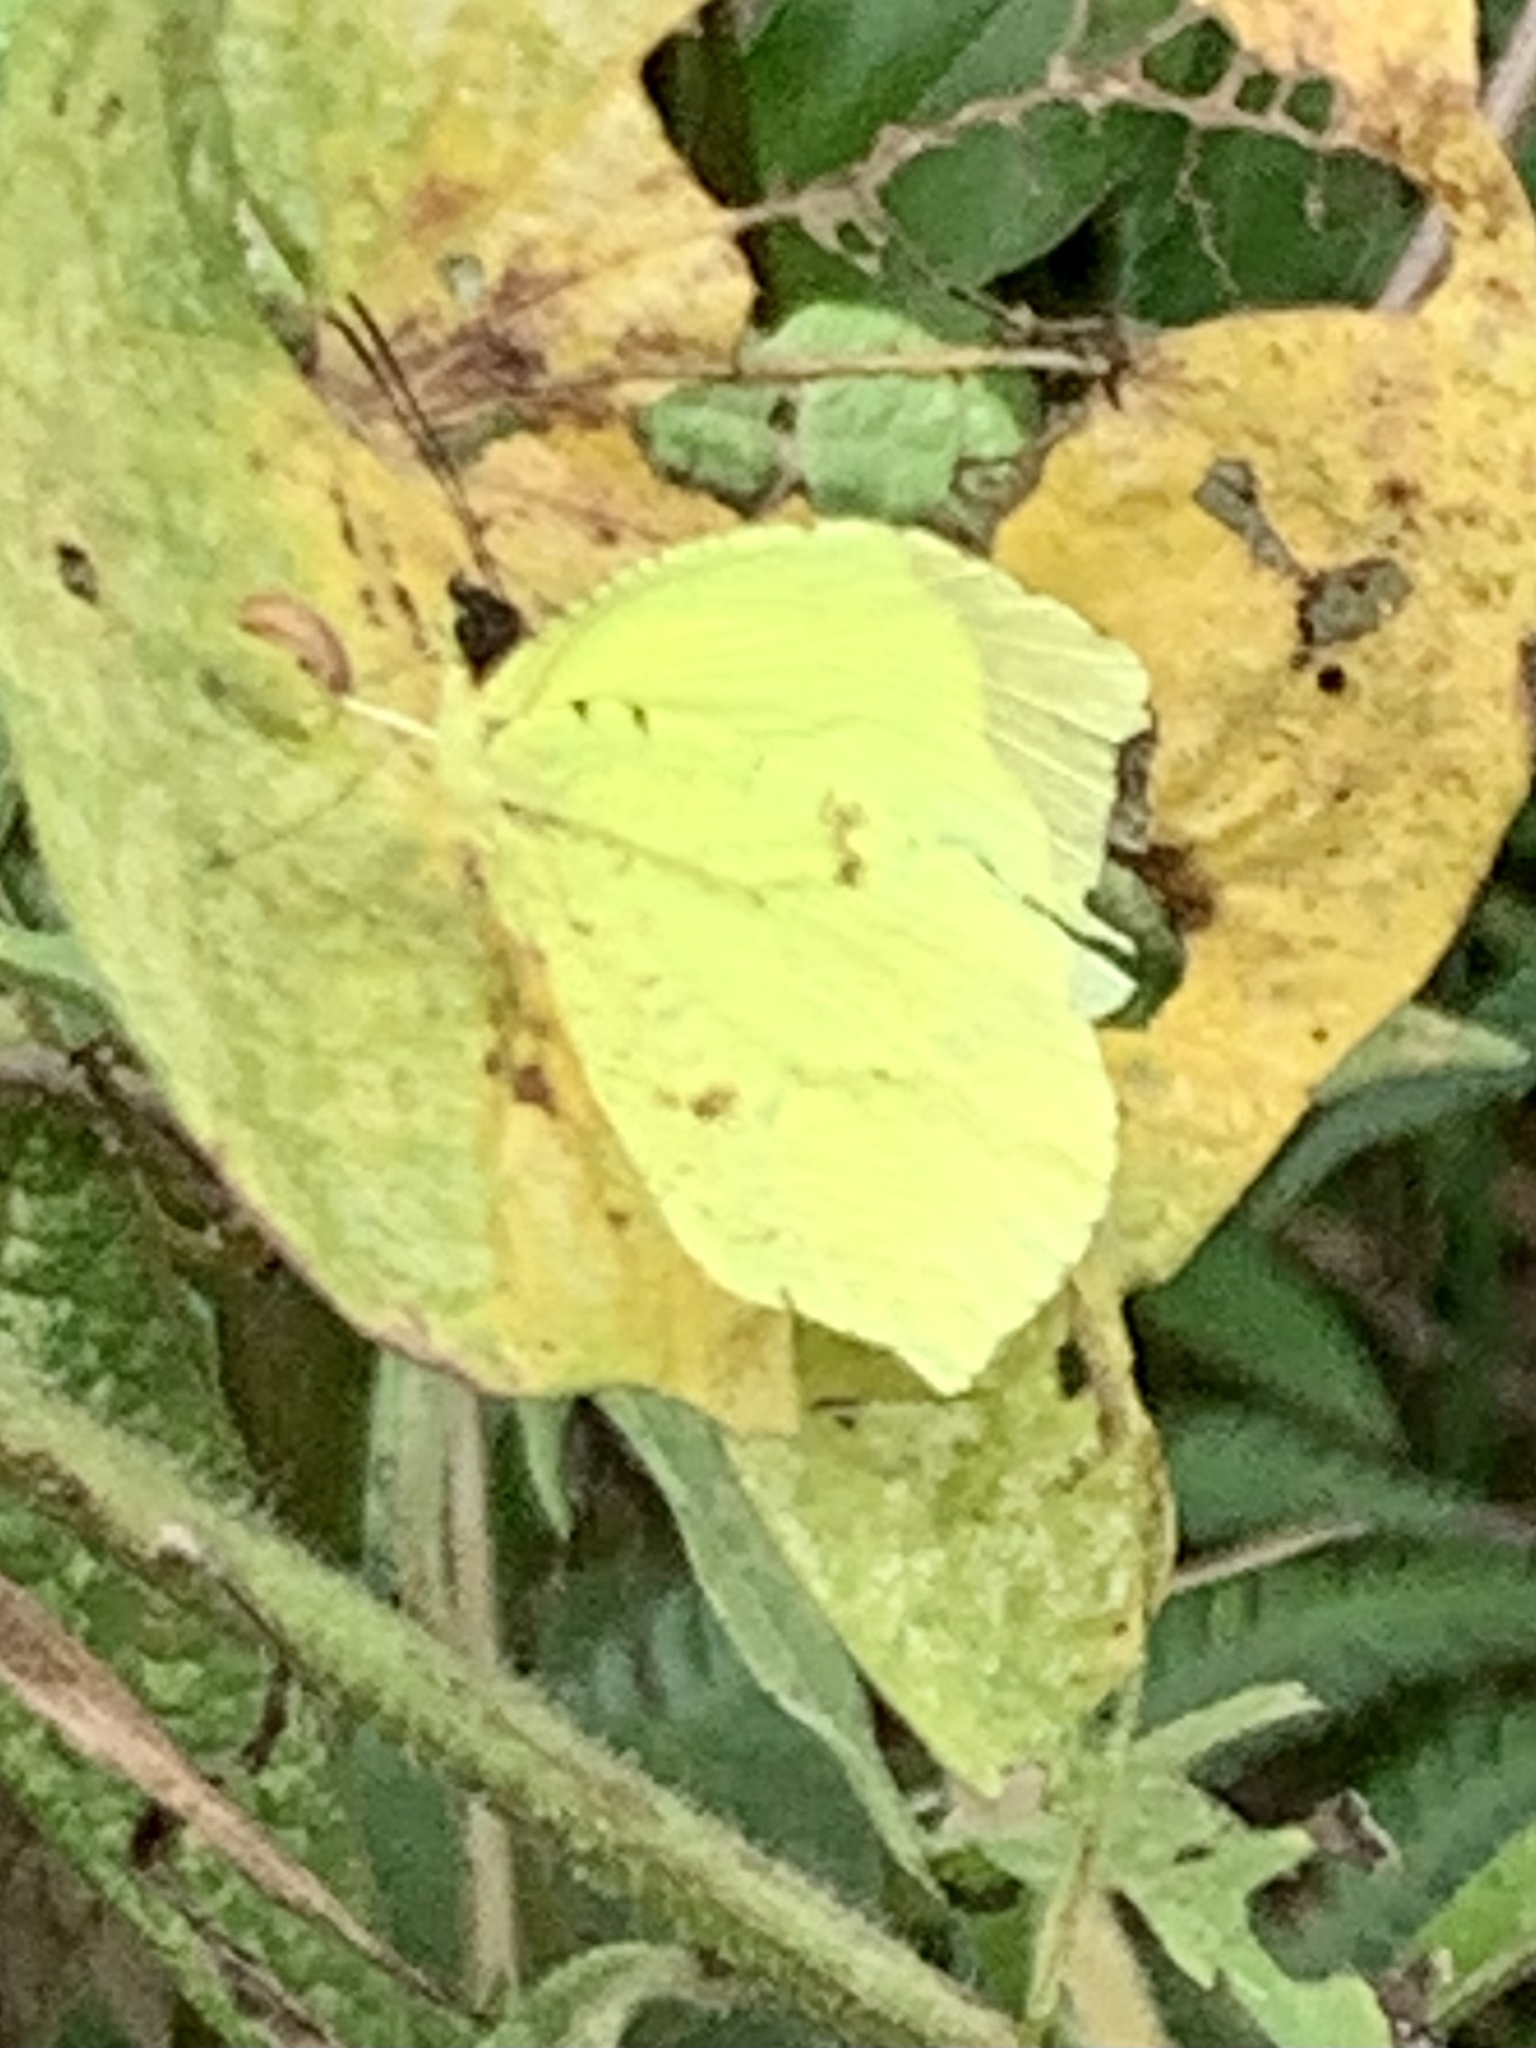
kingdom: Animalia
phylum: Arthropoda
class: Insecta
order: Lepidoptera
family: Pieridae
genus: Abaeis
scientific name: Abaeis salome
